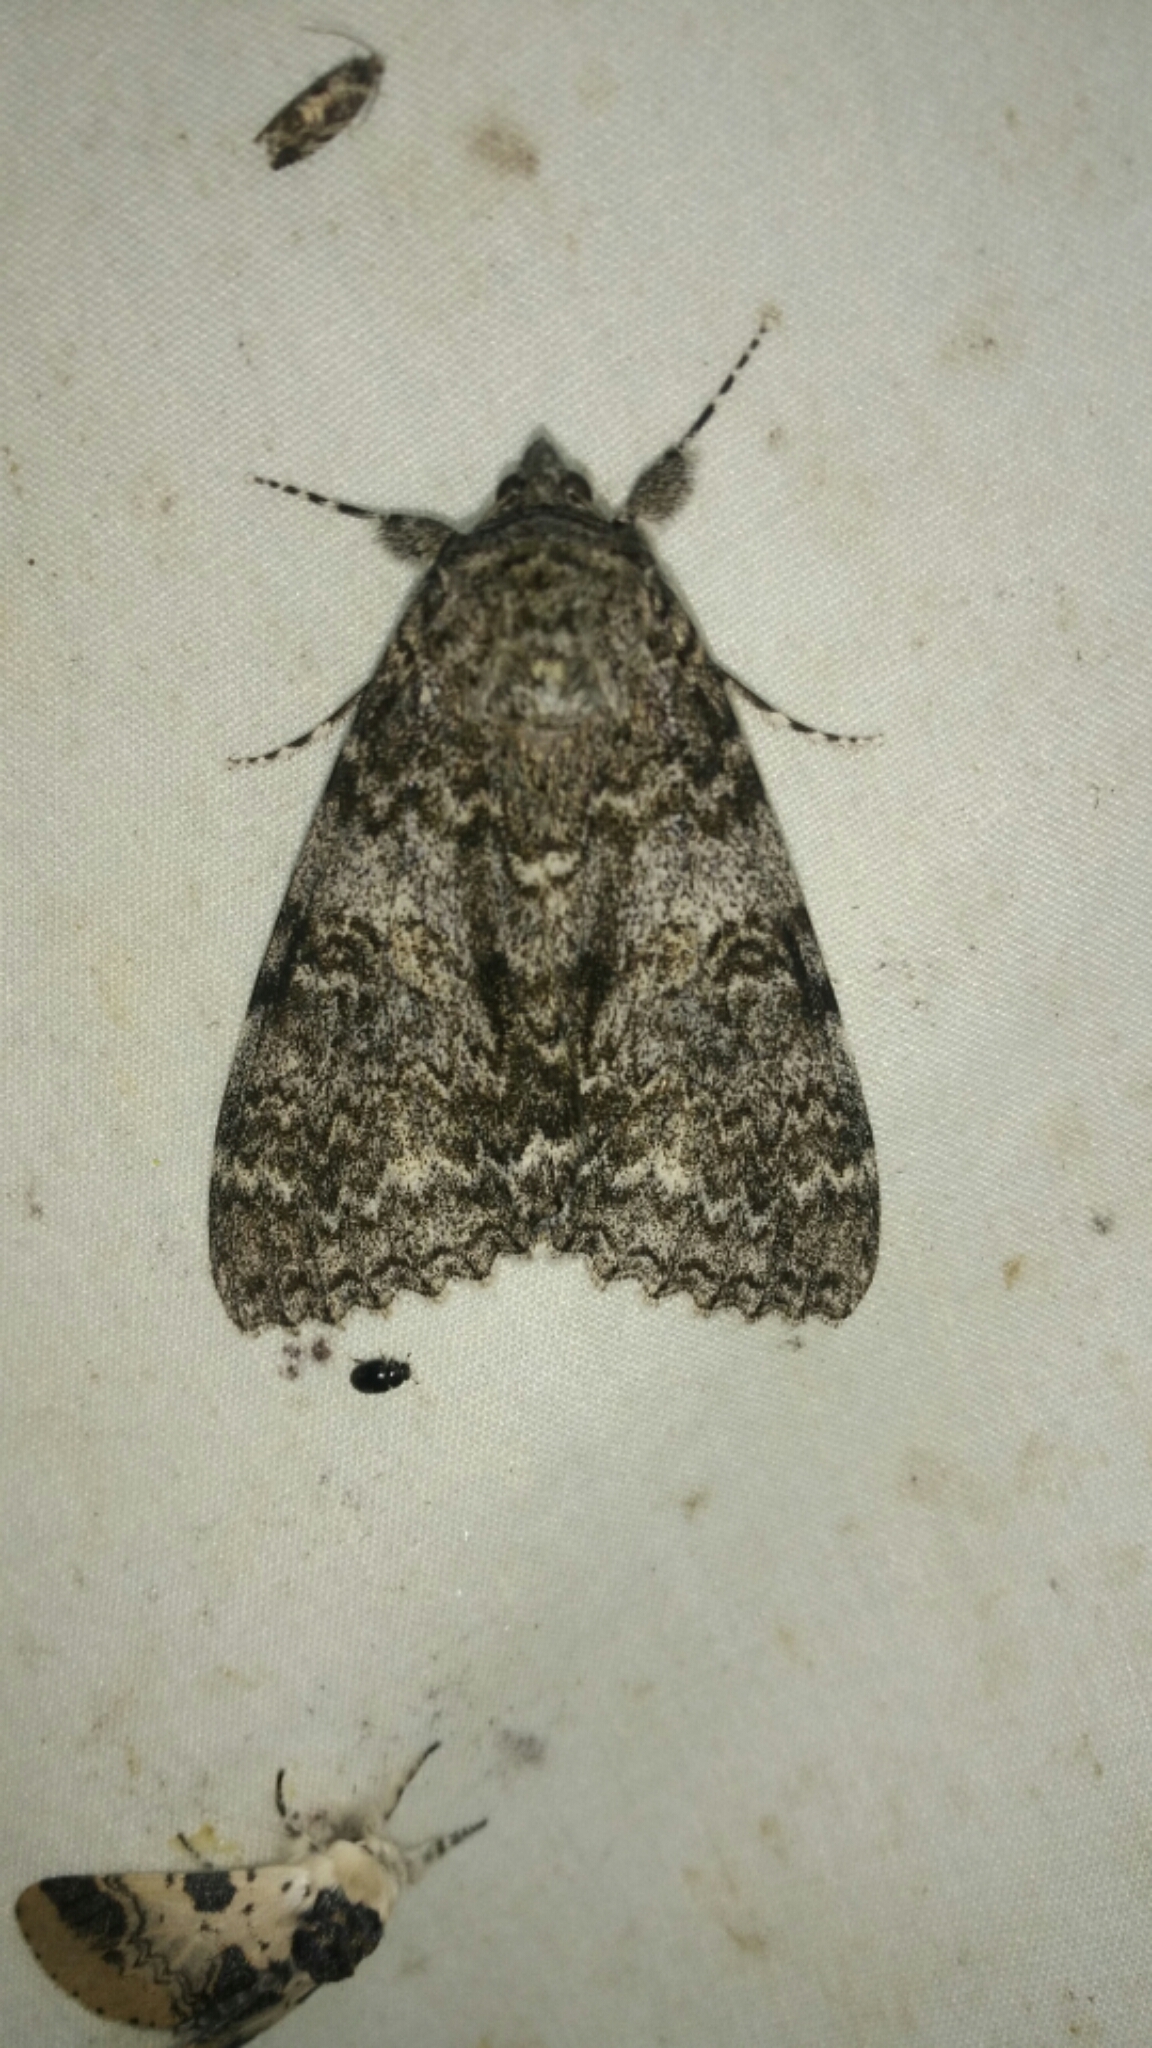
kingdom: Animalia
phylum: Arthropoda
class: Insecta
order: Lepidoptera
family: Erebidae
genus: Catocala
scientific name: Catocala unijuga
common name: Once-married underwing
